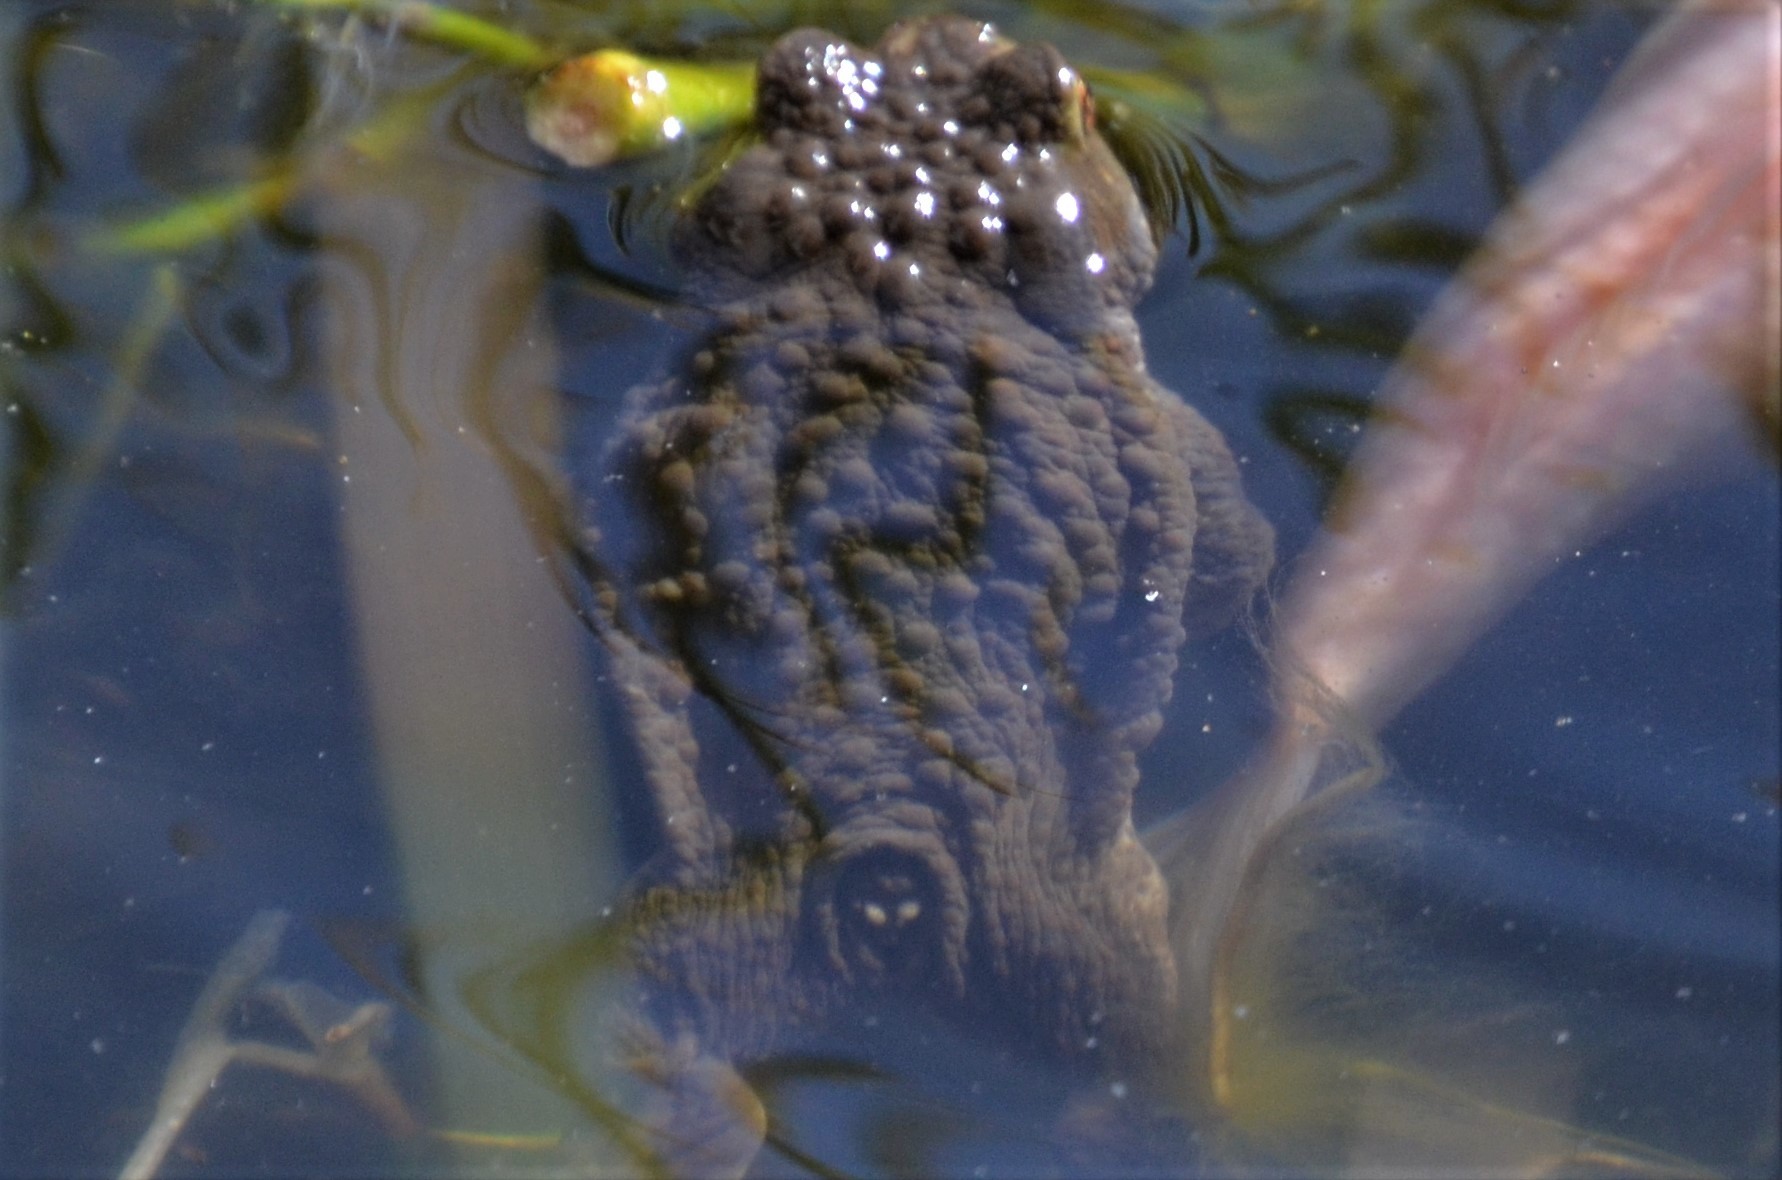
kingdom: Animalia
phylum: Chordata
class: Amphibia
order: Anura
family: Bufonidae
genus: Bufo
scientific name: Bufo bufo
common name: Common toad
